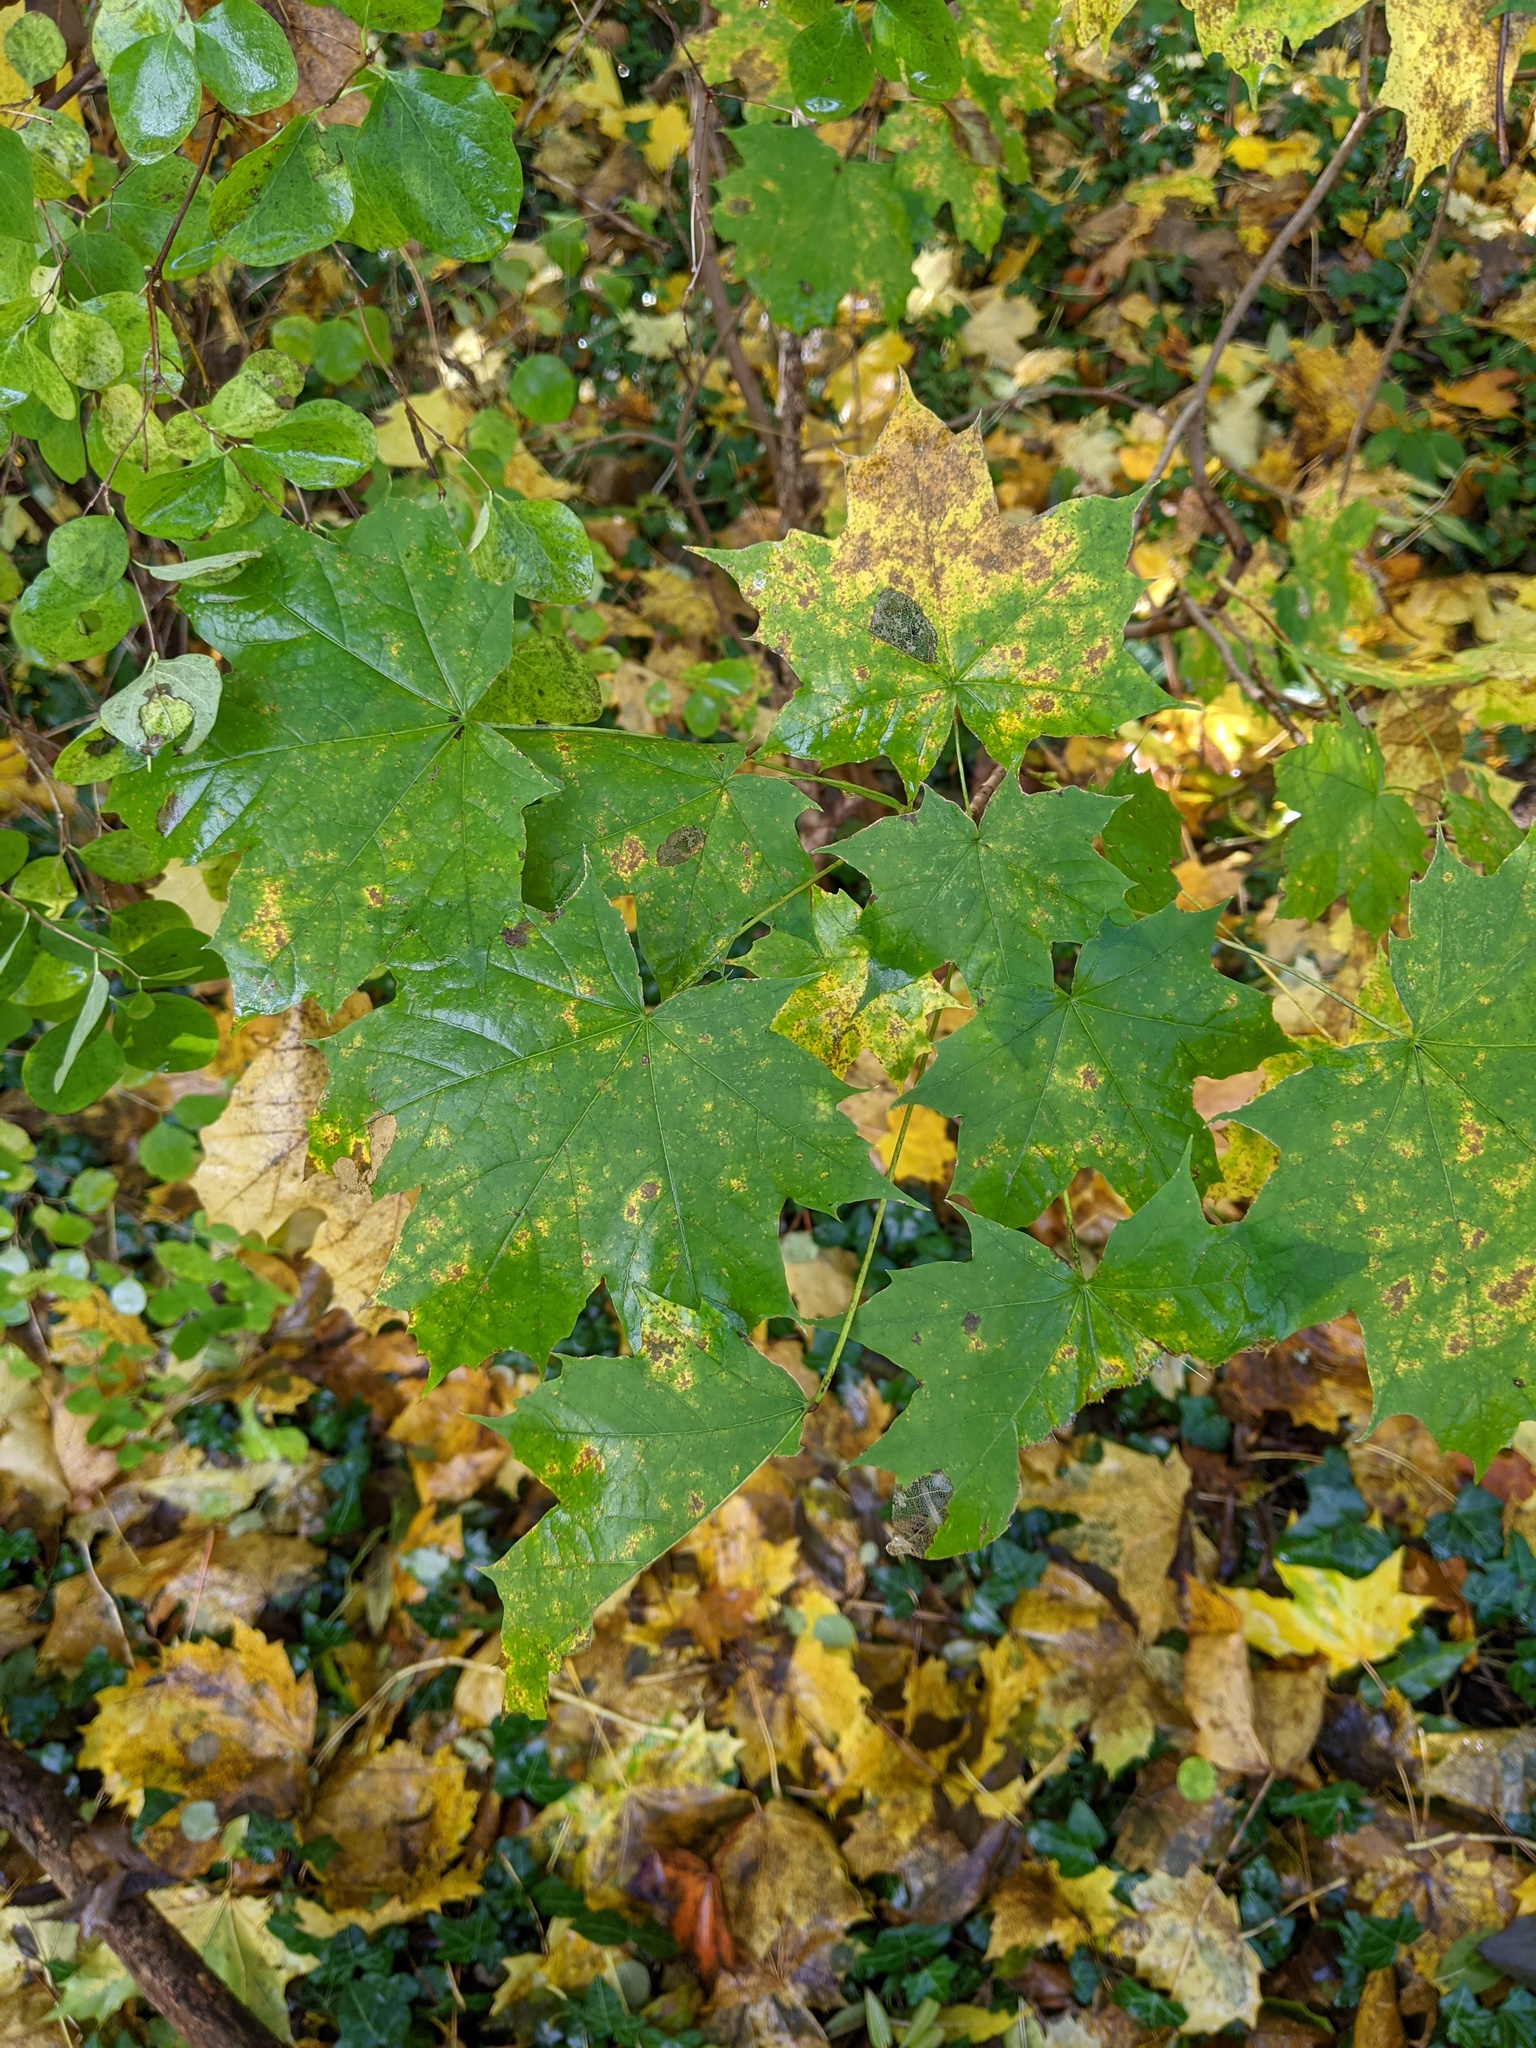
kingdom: Plantae
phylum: Tracheophyta
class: Magnoliopsida
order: Sapindales
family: Sapindaceae
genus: Acer
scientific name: Acer platanoides
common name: Norway maple
